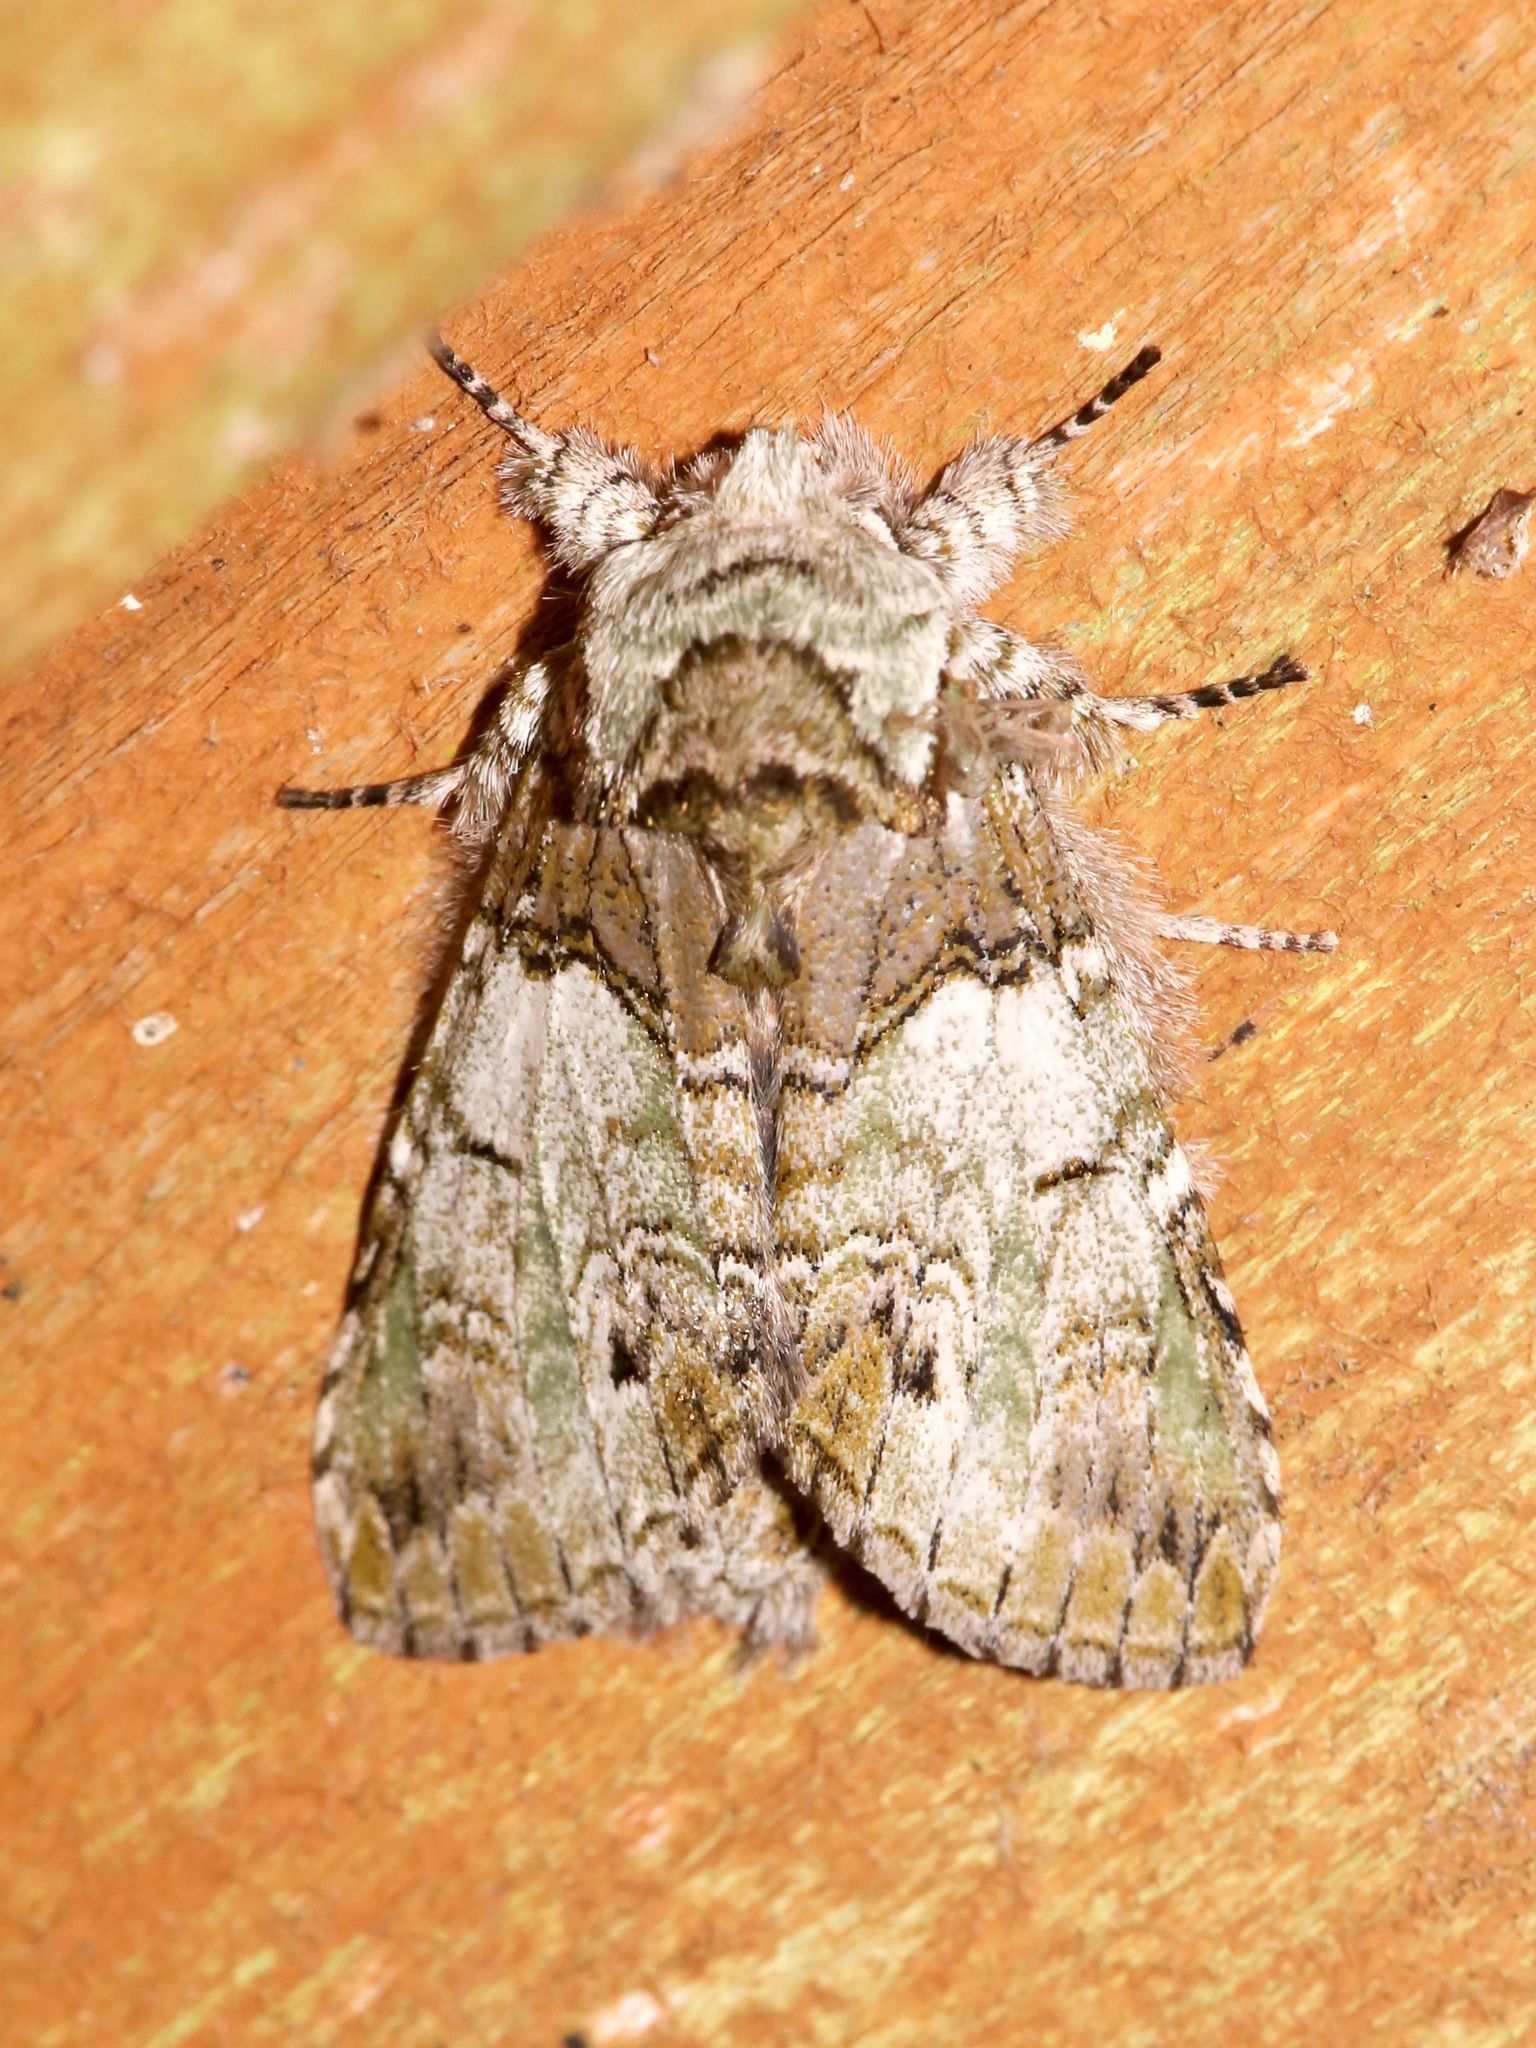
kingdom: Animalia
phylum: Arthropoda
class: Insecta
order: Lepidoptera
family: Notodontidae
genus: Macrurocampa
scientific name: Macrurocampa marthesia
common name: Mottled prominent
